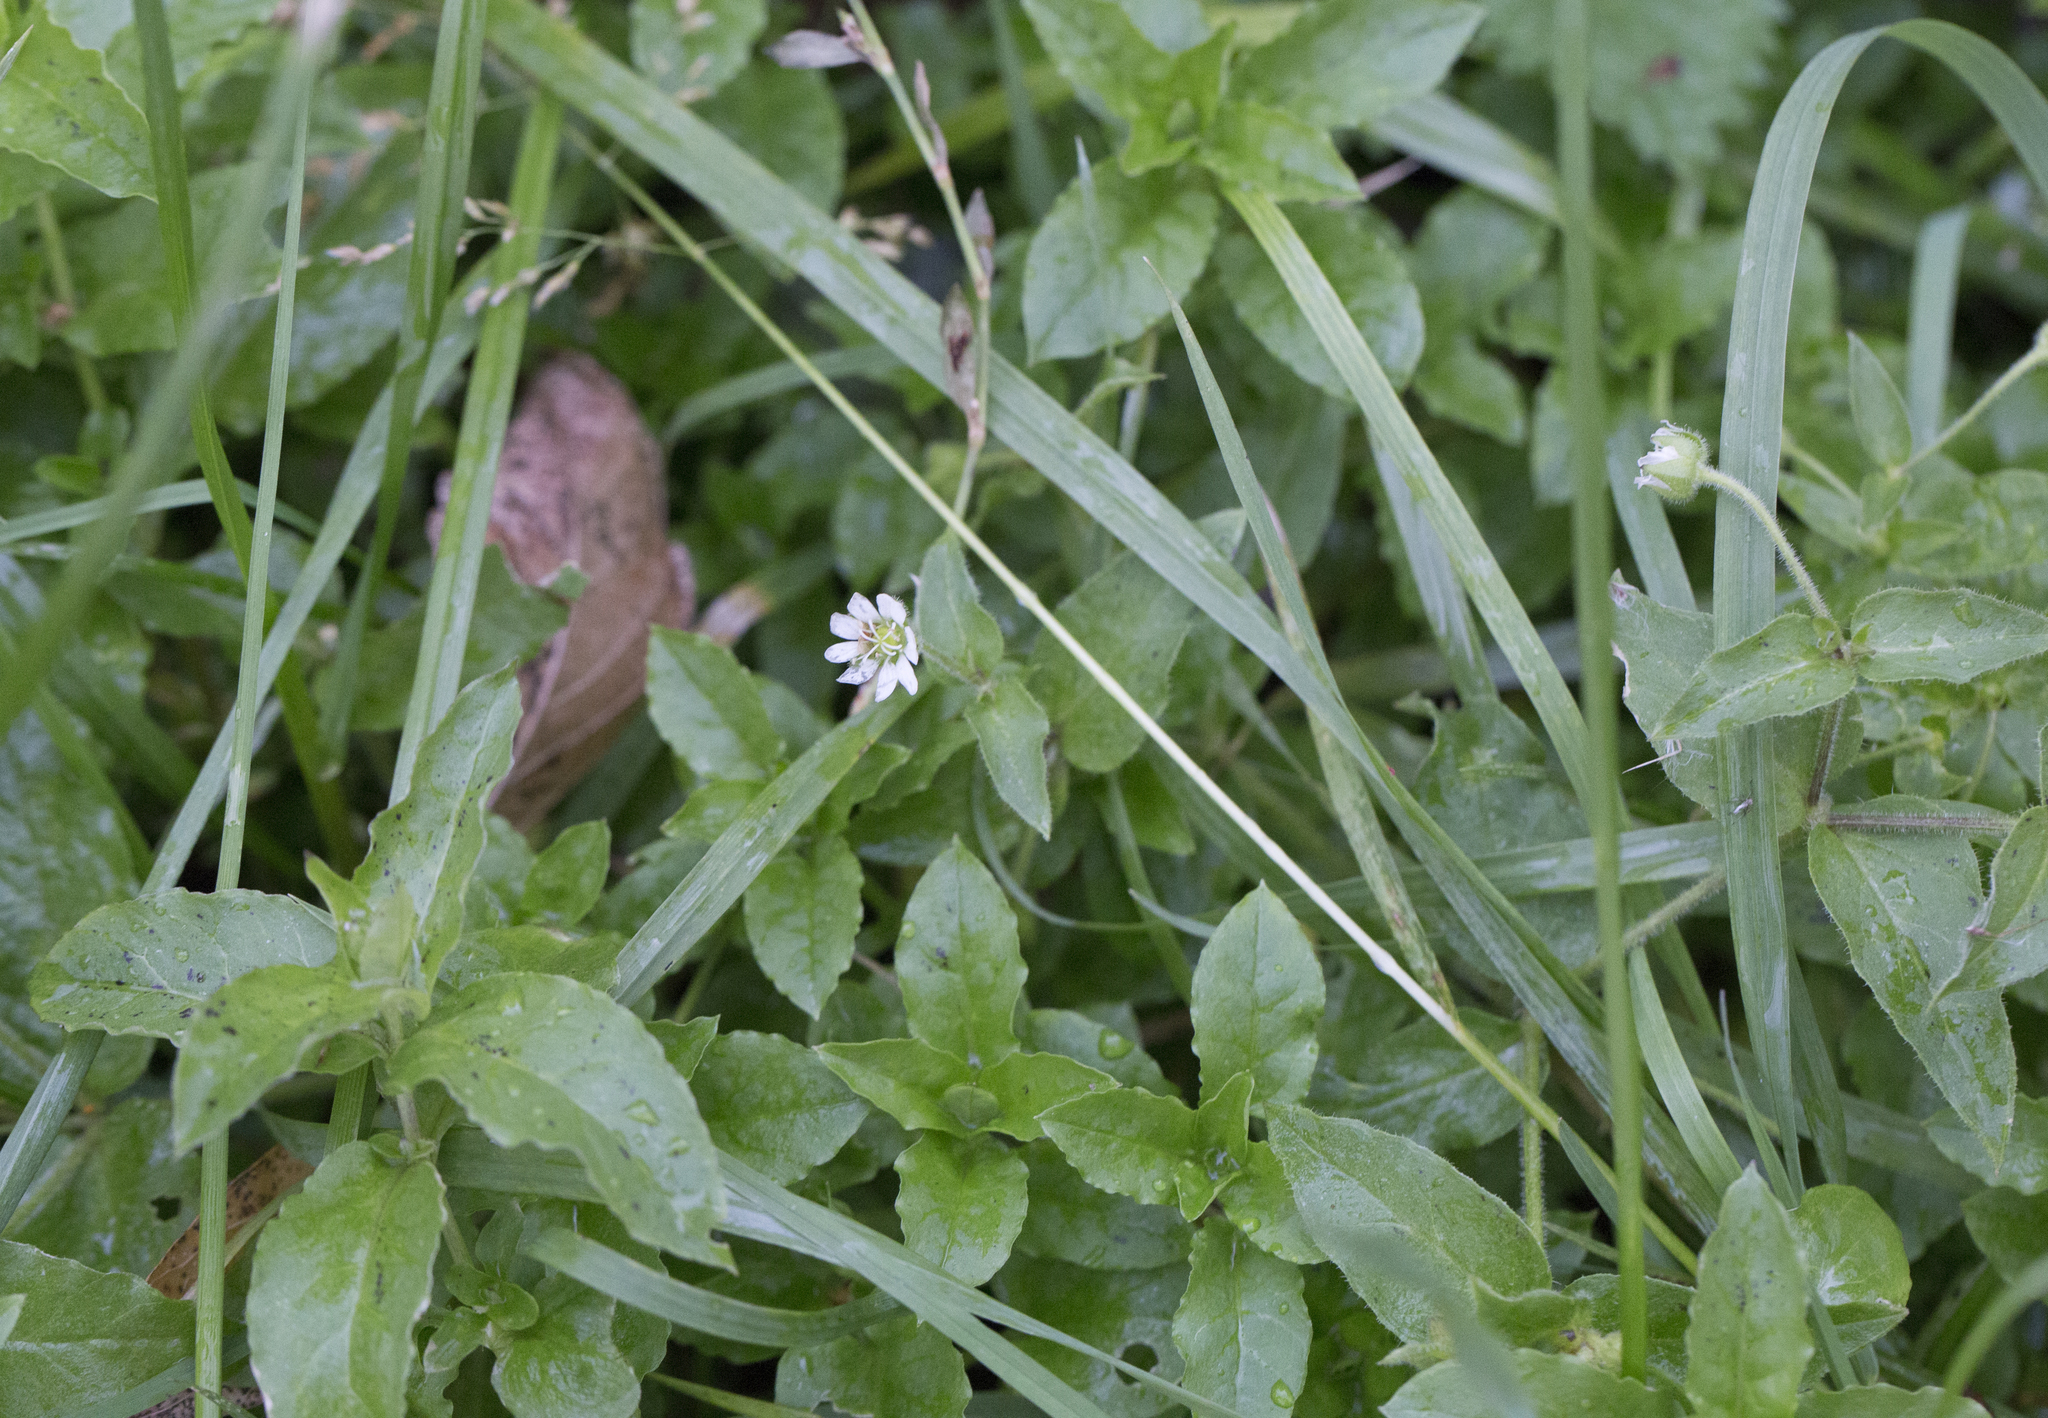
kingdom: Plantae
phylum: Tracheophyta
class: Magnoliopsida
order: Caryophyllales
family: Caryophyllaceae
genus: Stellaria
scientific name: Stellaria aquatica
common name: Water chickweed
